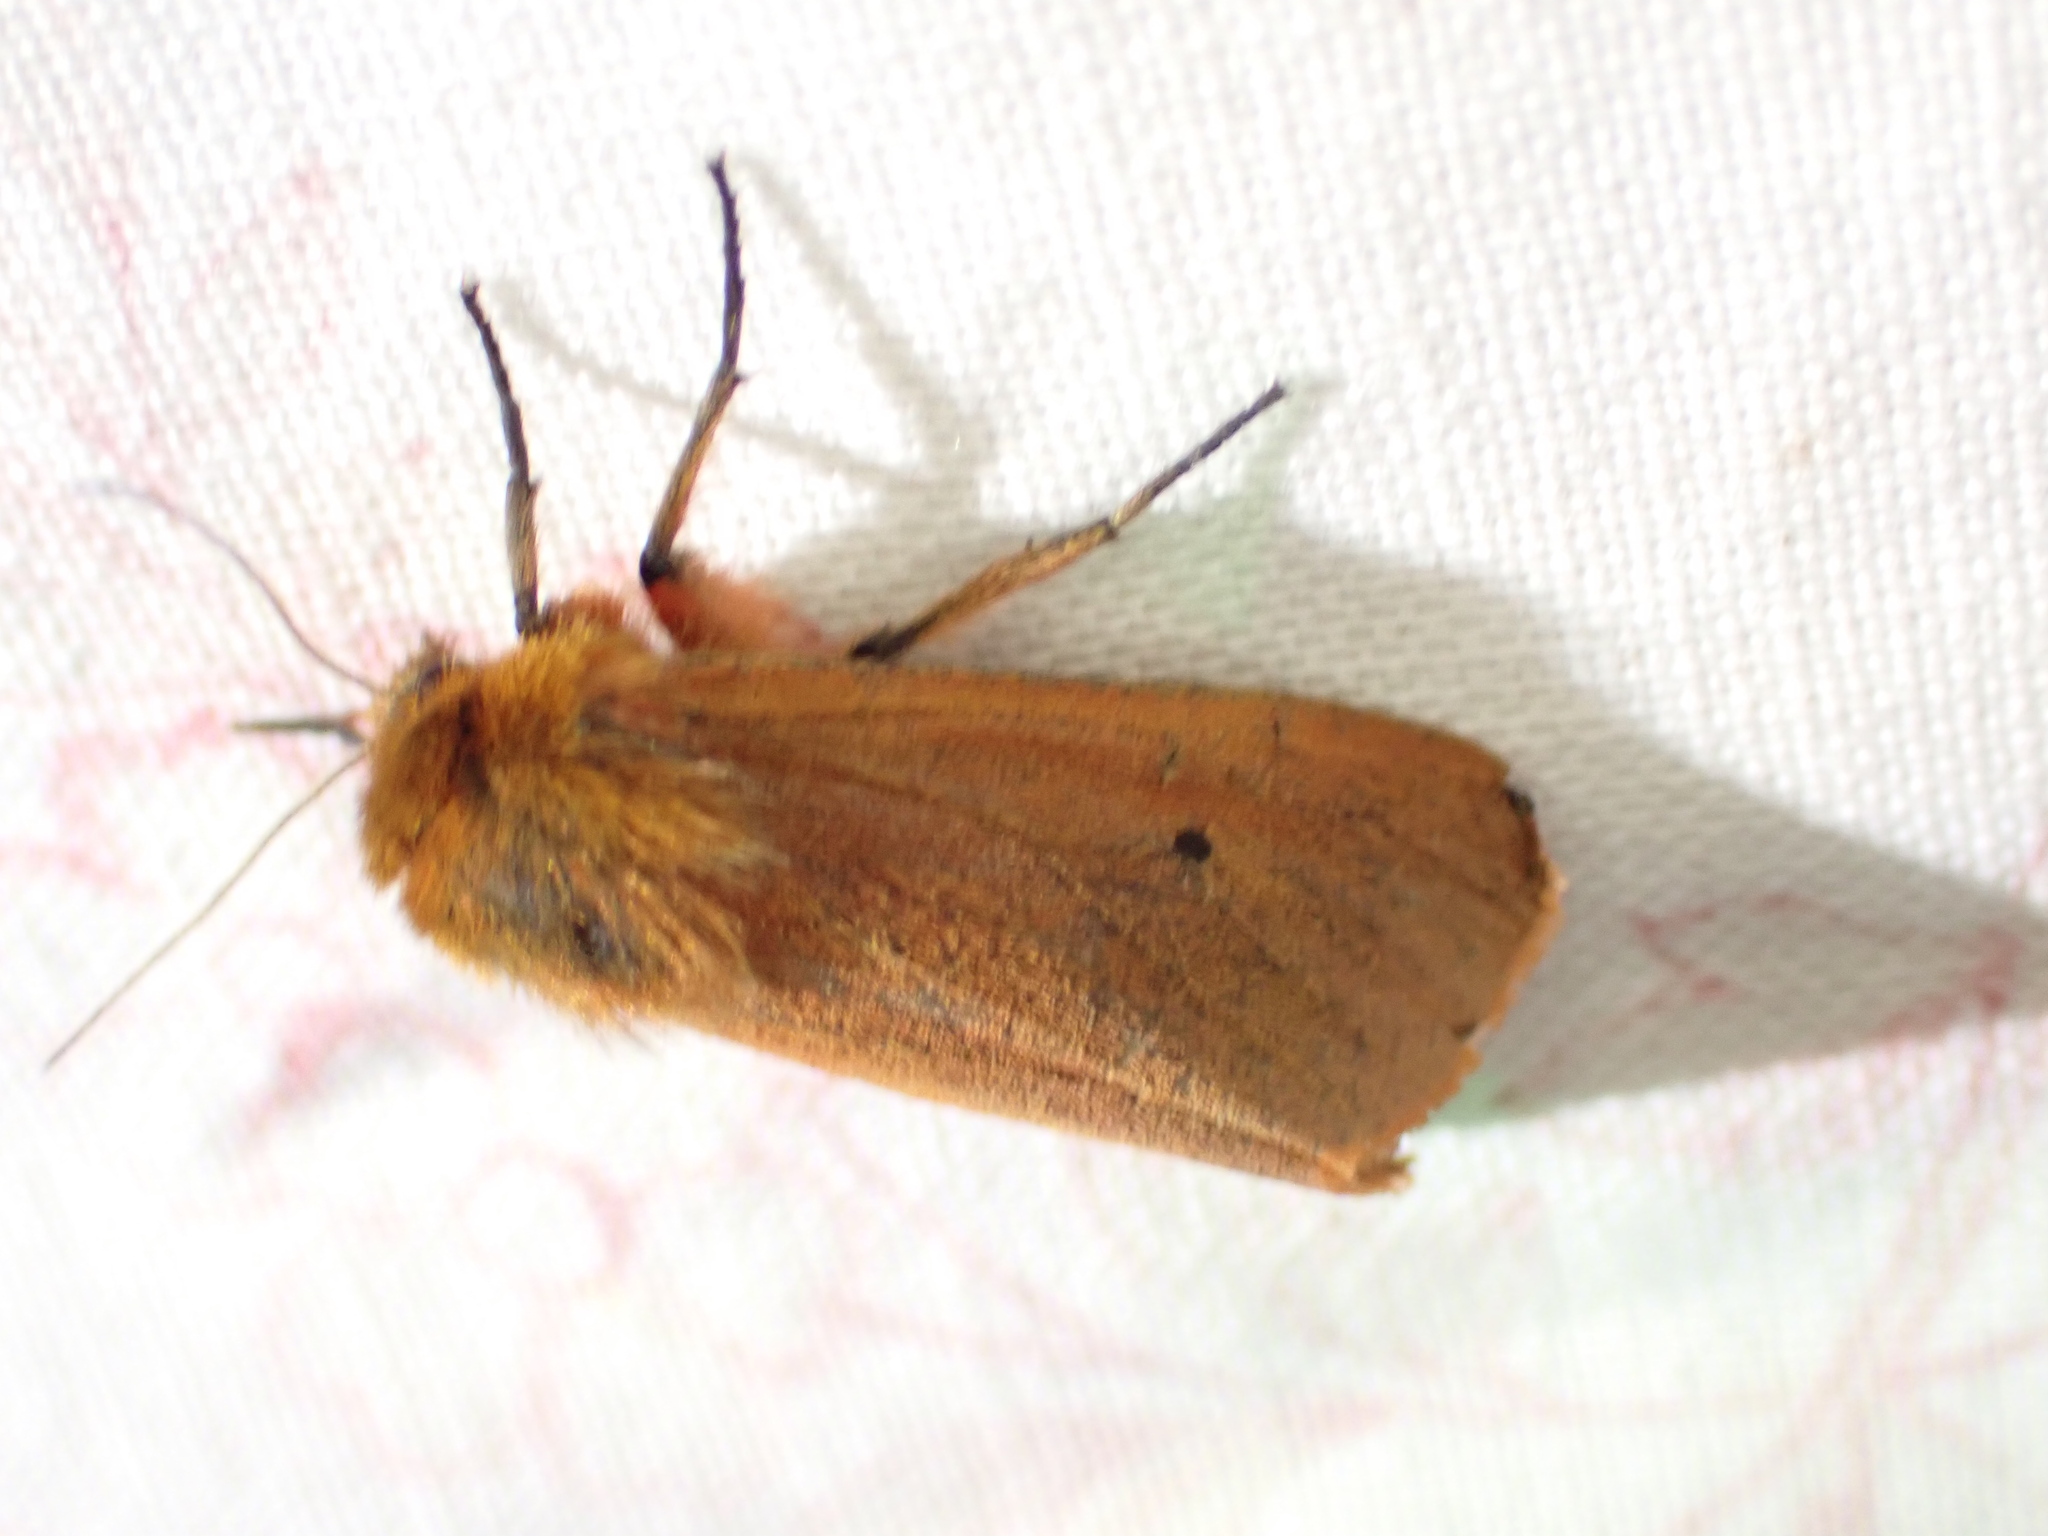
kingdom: Animalia
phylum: Arthropoda
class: Insecta
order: Lepidoptera
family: Erebidae
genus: Phragmatobia
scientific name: Phragmatobia fuliginosa
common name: Ruby tiger
